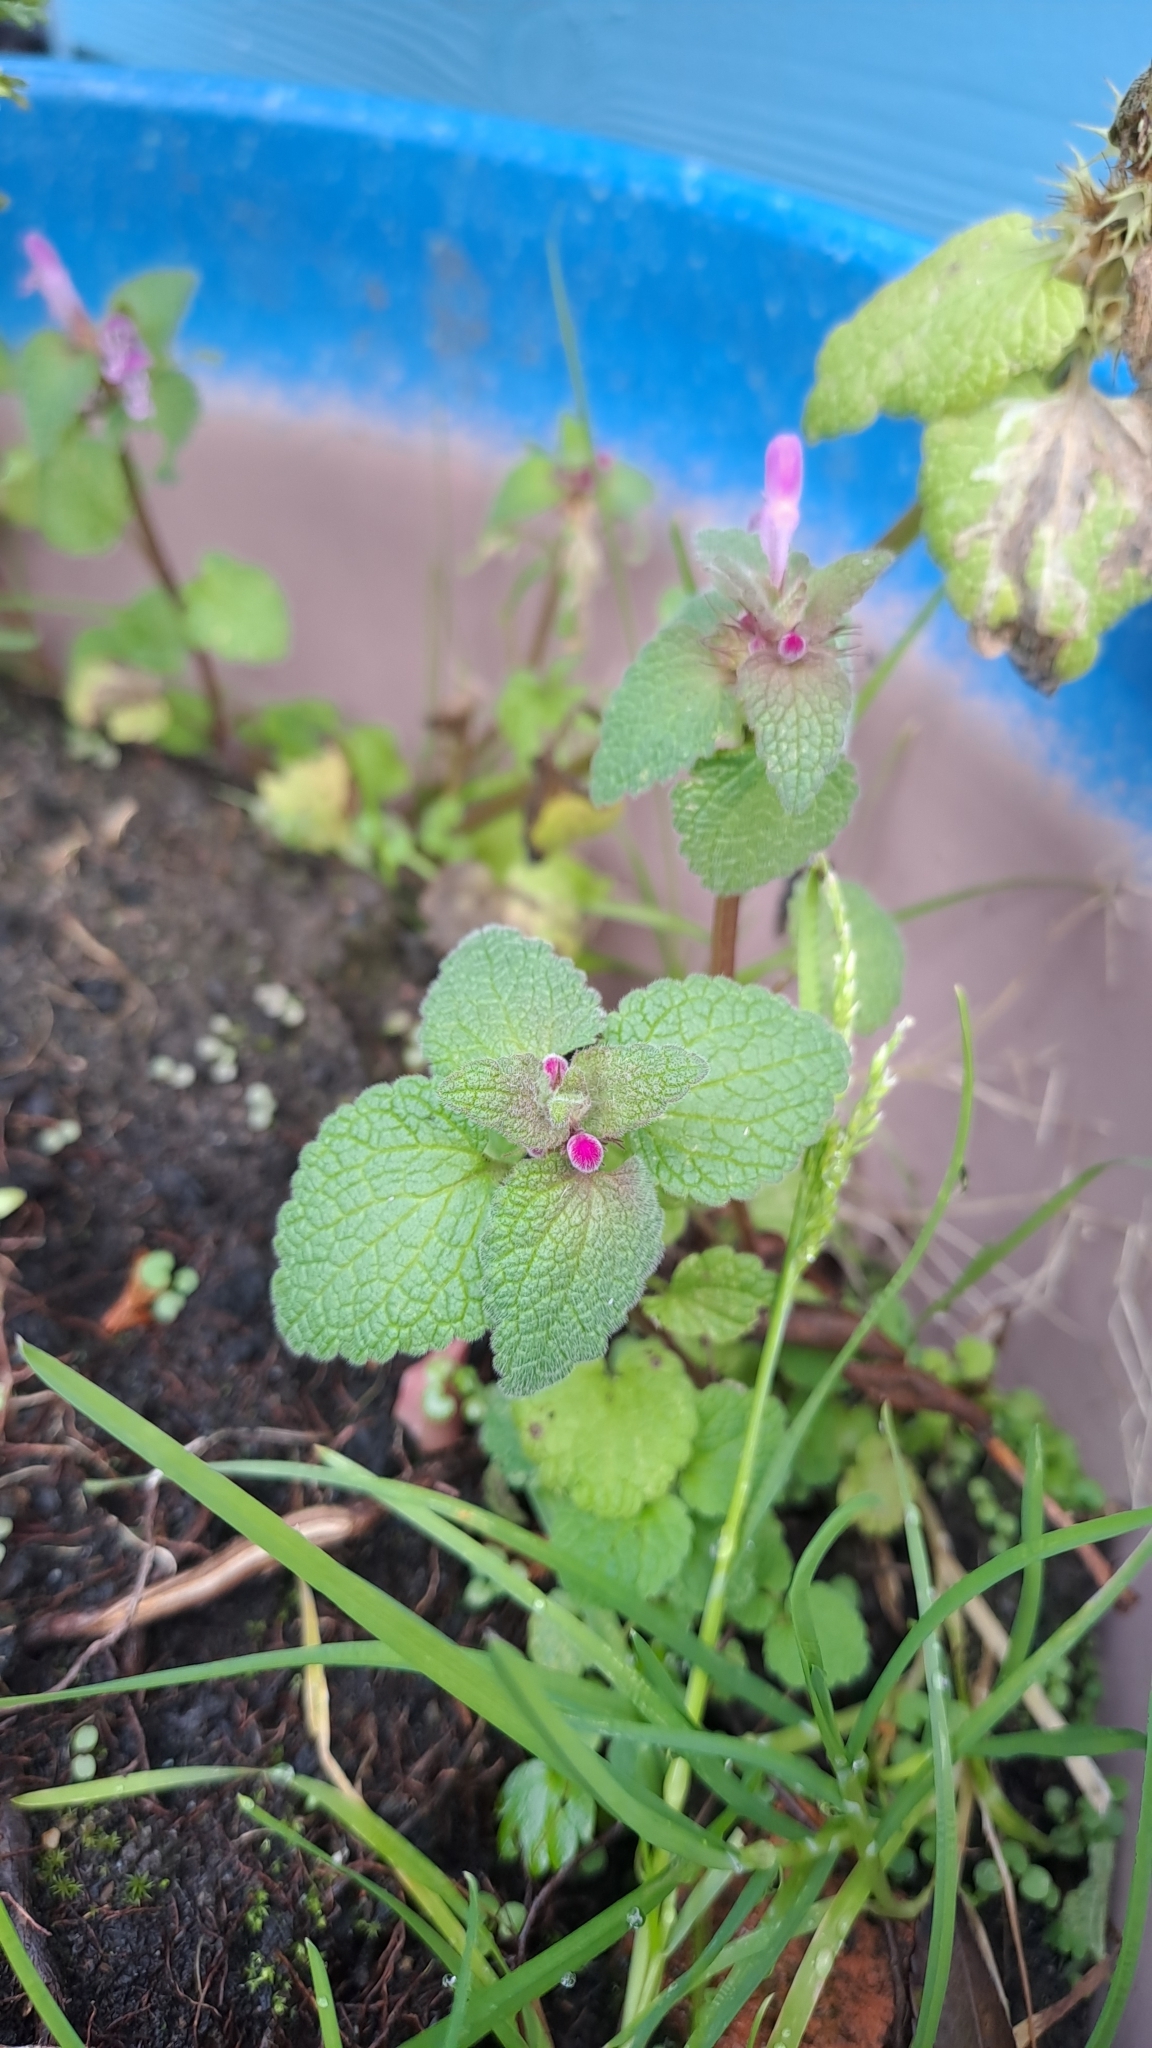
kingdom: Plantae
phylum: Tracheophyta
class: Magnoliopsida
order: Lamiales
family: Lamiaceae
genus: Lamium
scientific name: Lamium purpureum
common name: Red dead-nettle
